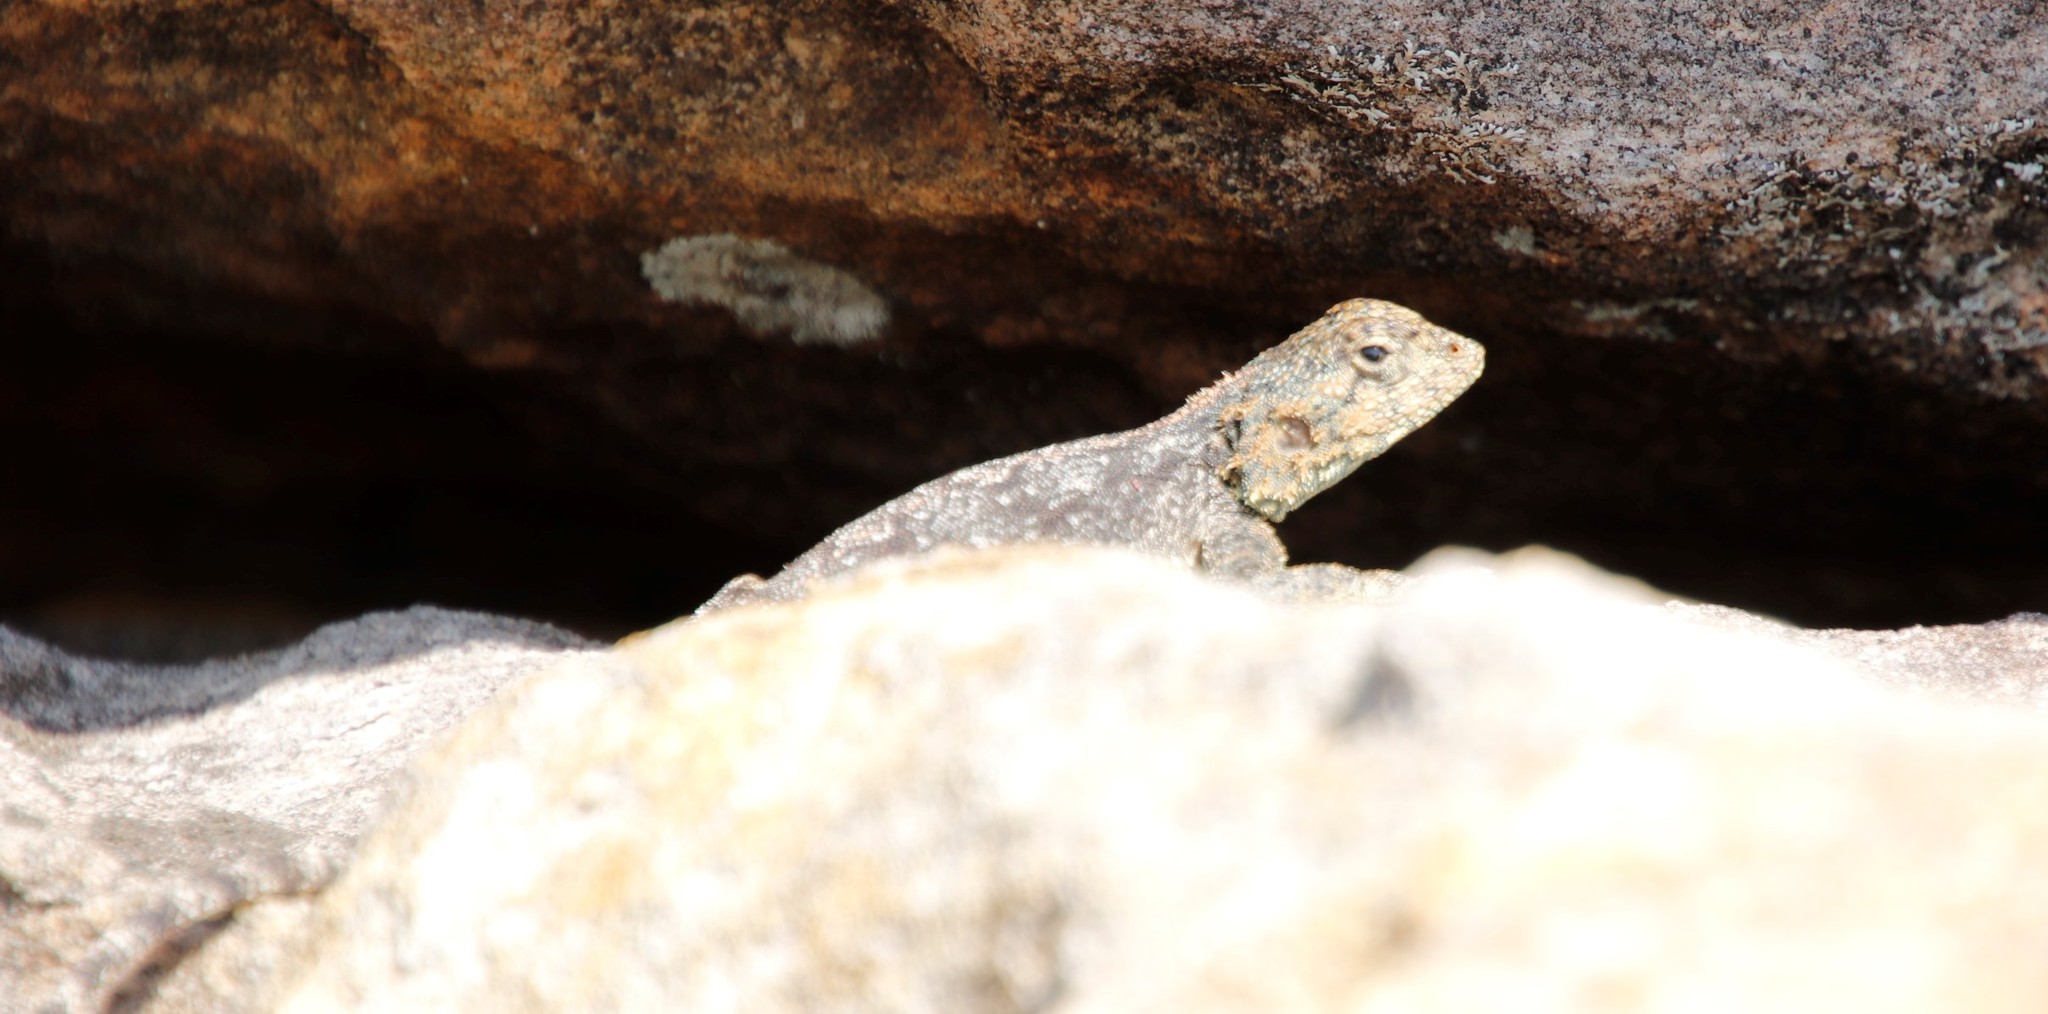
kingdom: Animalia
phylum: Chordata
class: Squamata
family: Agamidae
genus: Agama
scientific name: Agama atra
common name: Southern african rock agama
